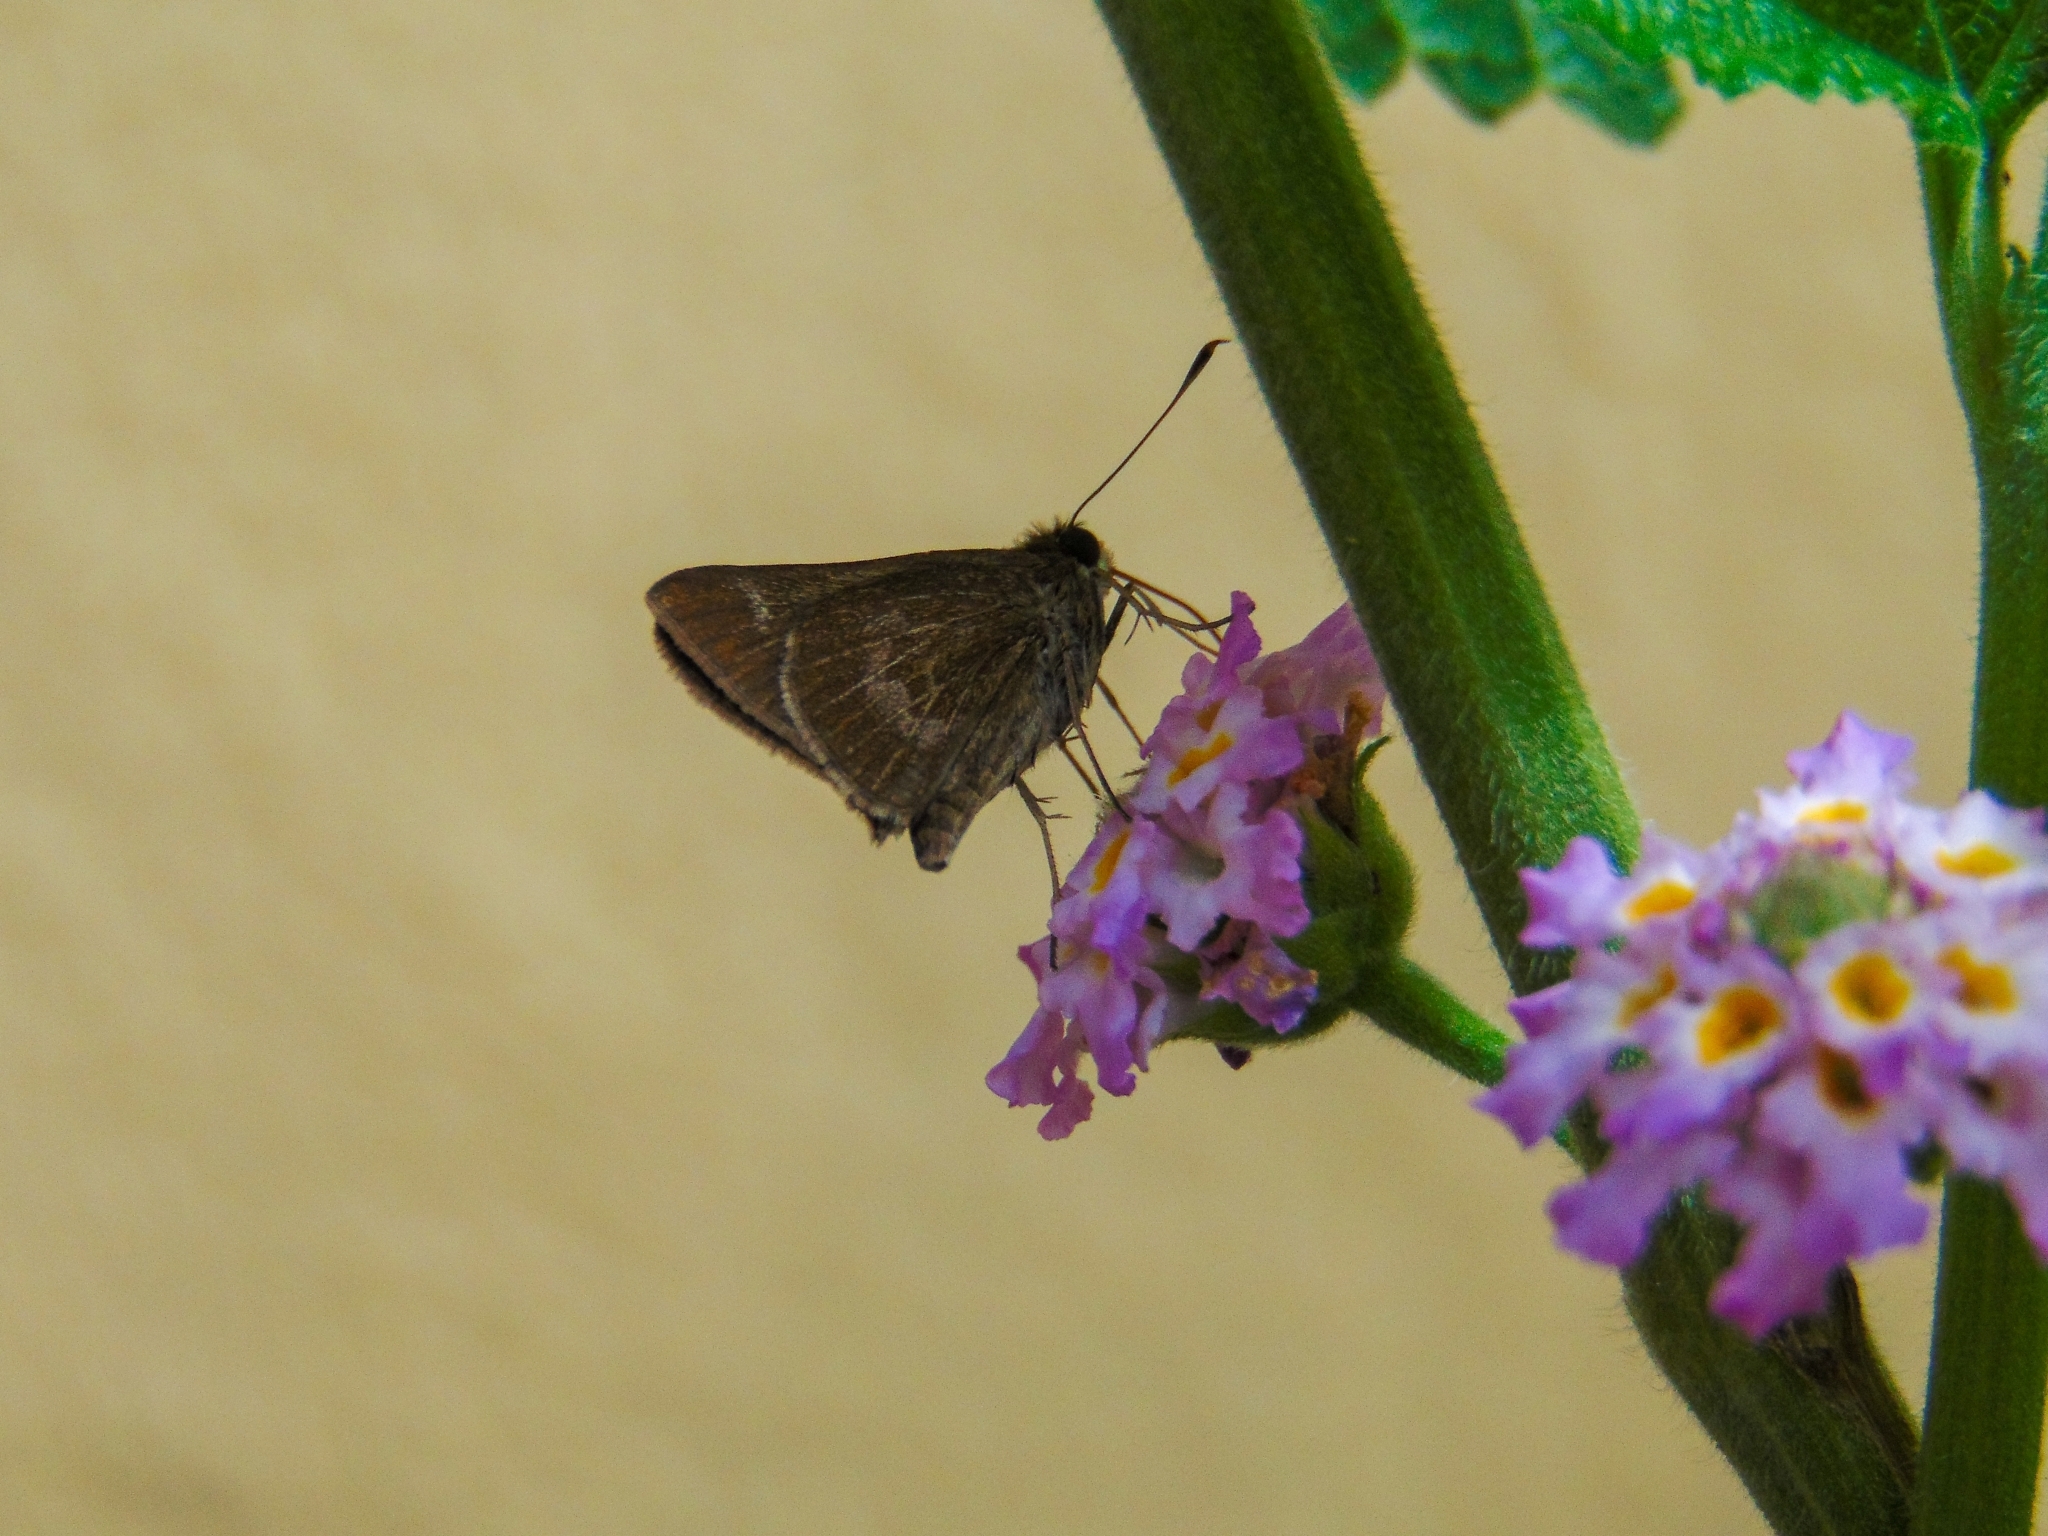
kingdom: Animalia
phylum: Arthropoda
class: Insecta
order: Lepidoptera
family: Hesperiidae
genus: Vehilius
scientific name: Vehilius inca
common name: Inca skipper
